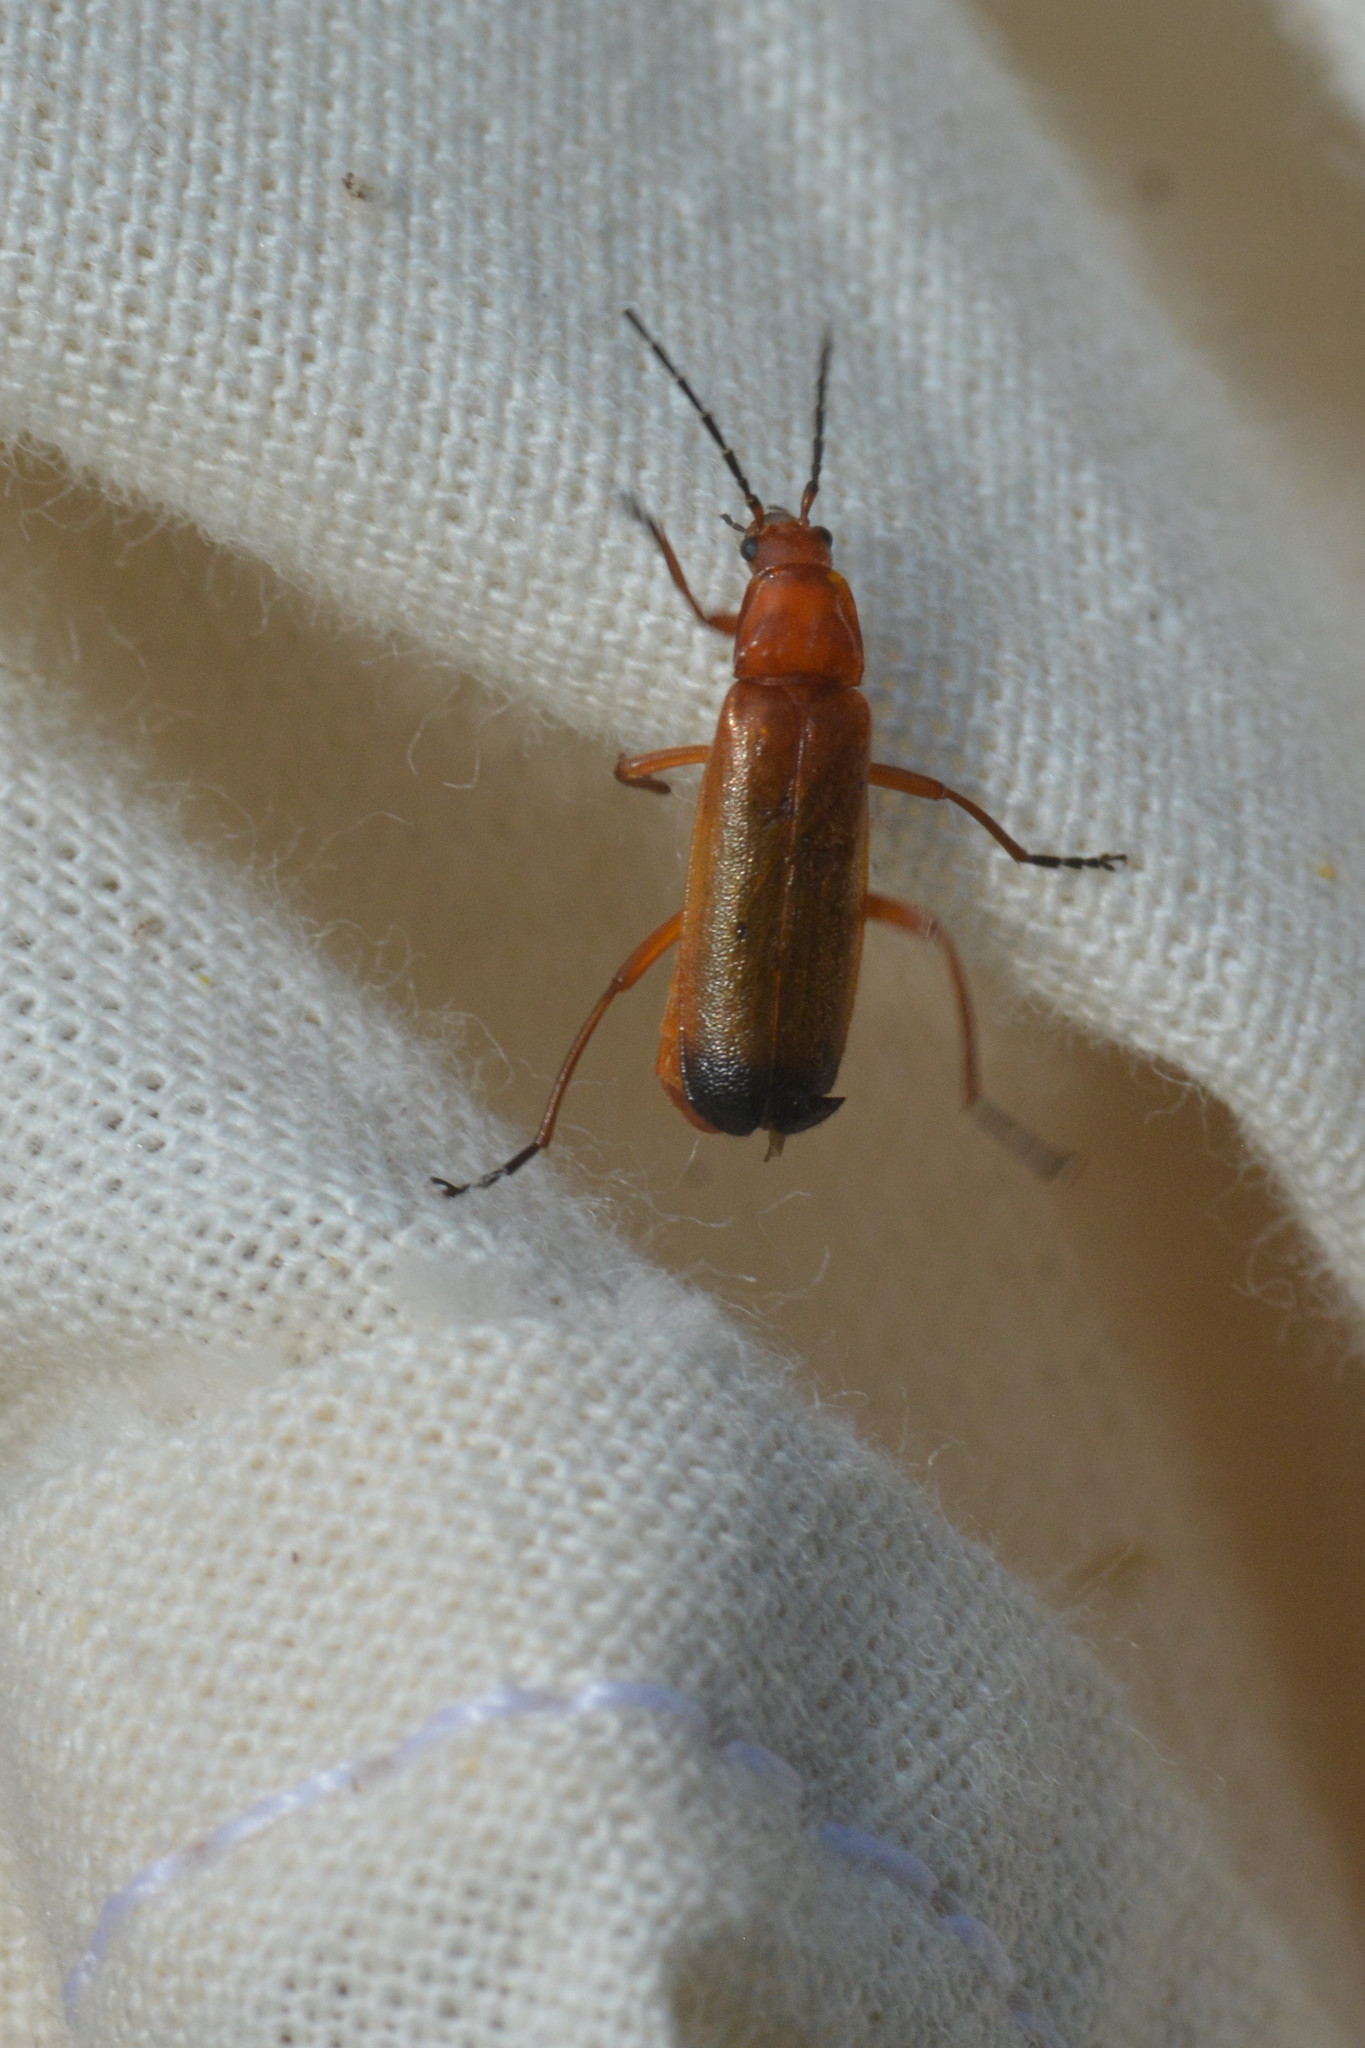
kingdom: Animalia
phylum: Arthropoda
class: Insecta
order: Coleoptera
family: Cantharidae
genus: Rhagonycha
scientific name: Rhagonycha fulva
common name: Common red soldier beetle
